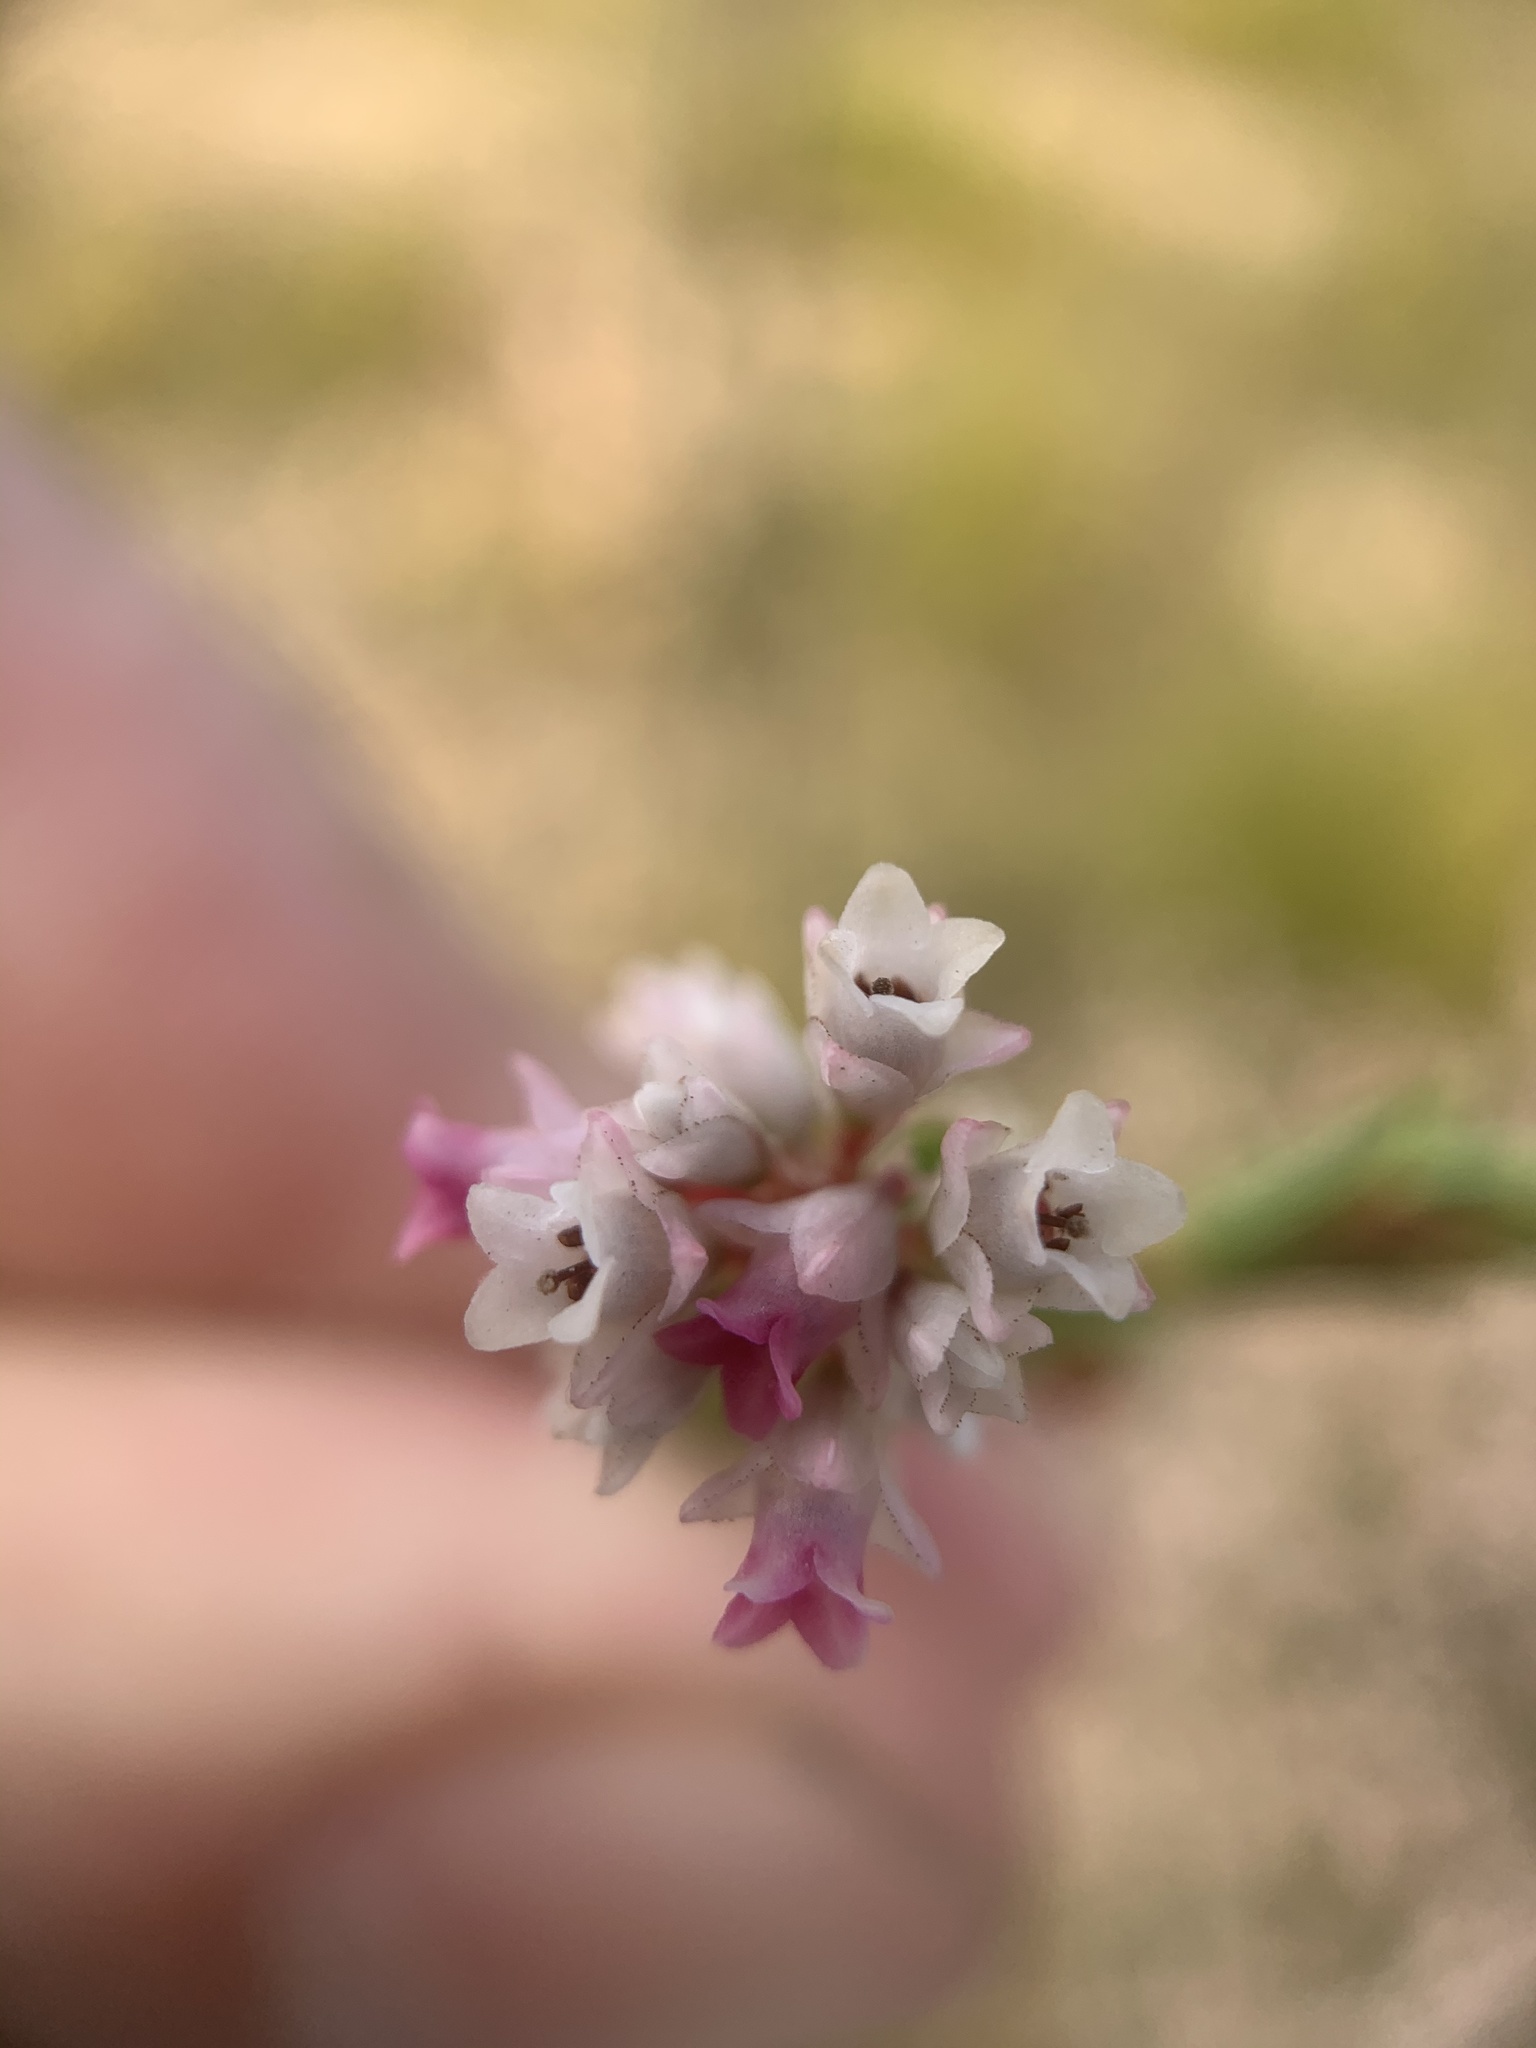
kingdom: Plantae
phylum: Tracheophyta
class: Magnoliopsida
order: Ericales
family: Ericaceae
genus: Erica
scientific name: Erica articularis
